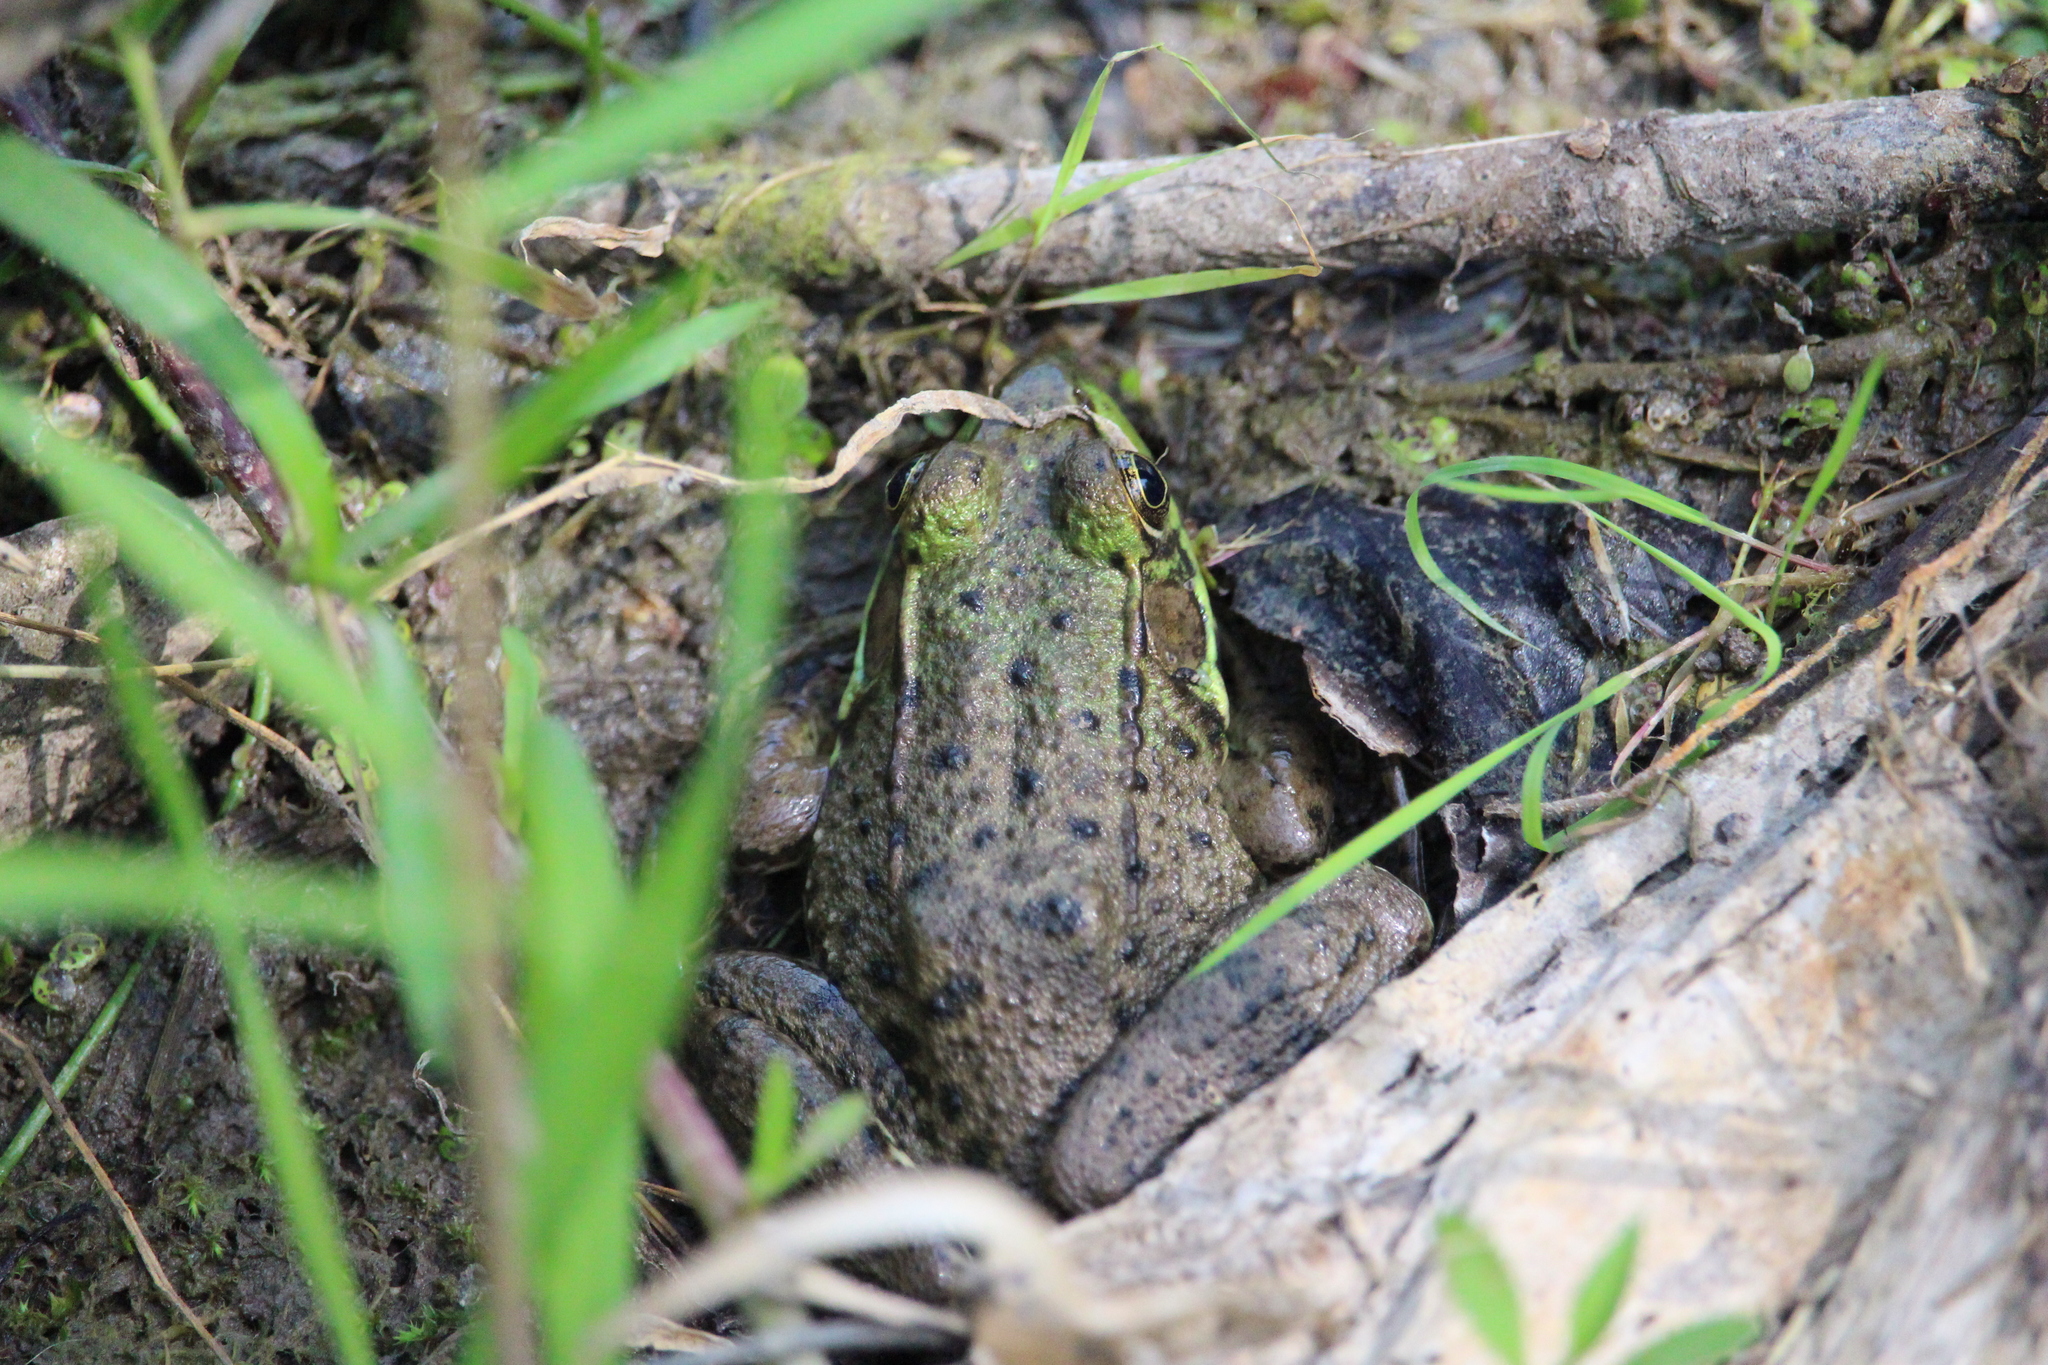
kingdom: Animalia
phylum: Chordata
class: Amphibia
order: Anura
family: Ranidae
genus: Lithobates
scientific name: Lithobates clamitans
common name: Green frog
